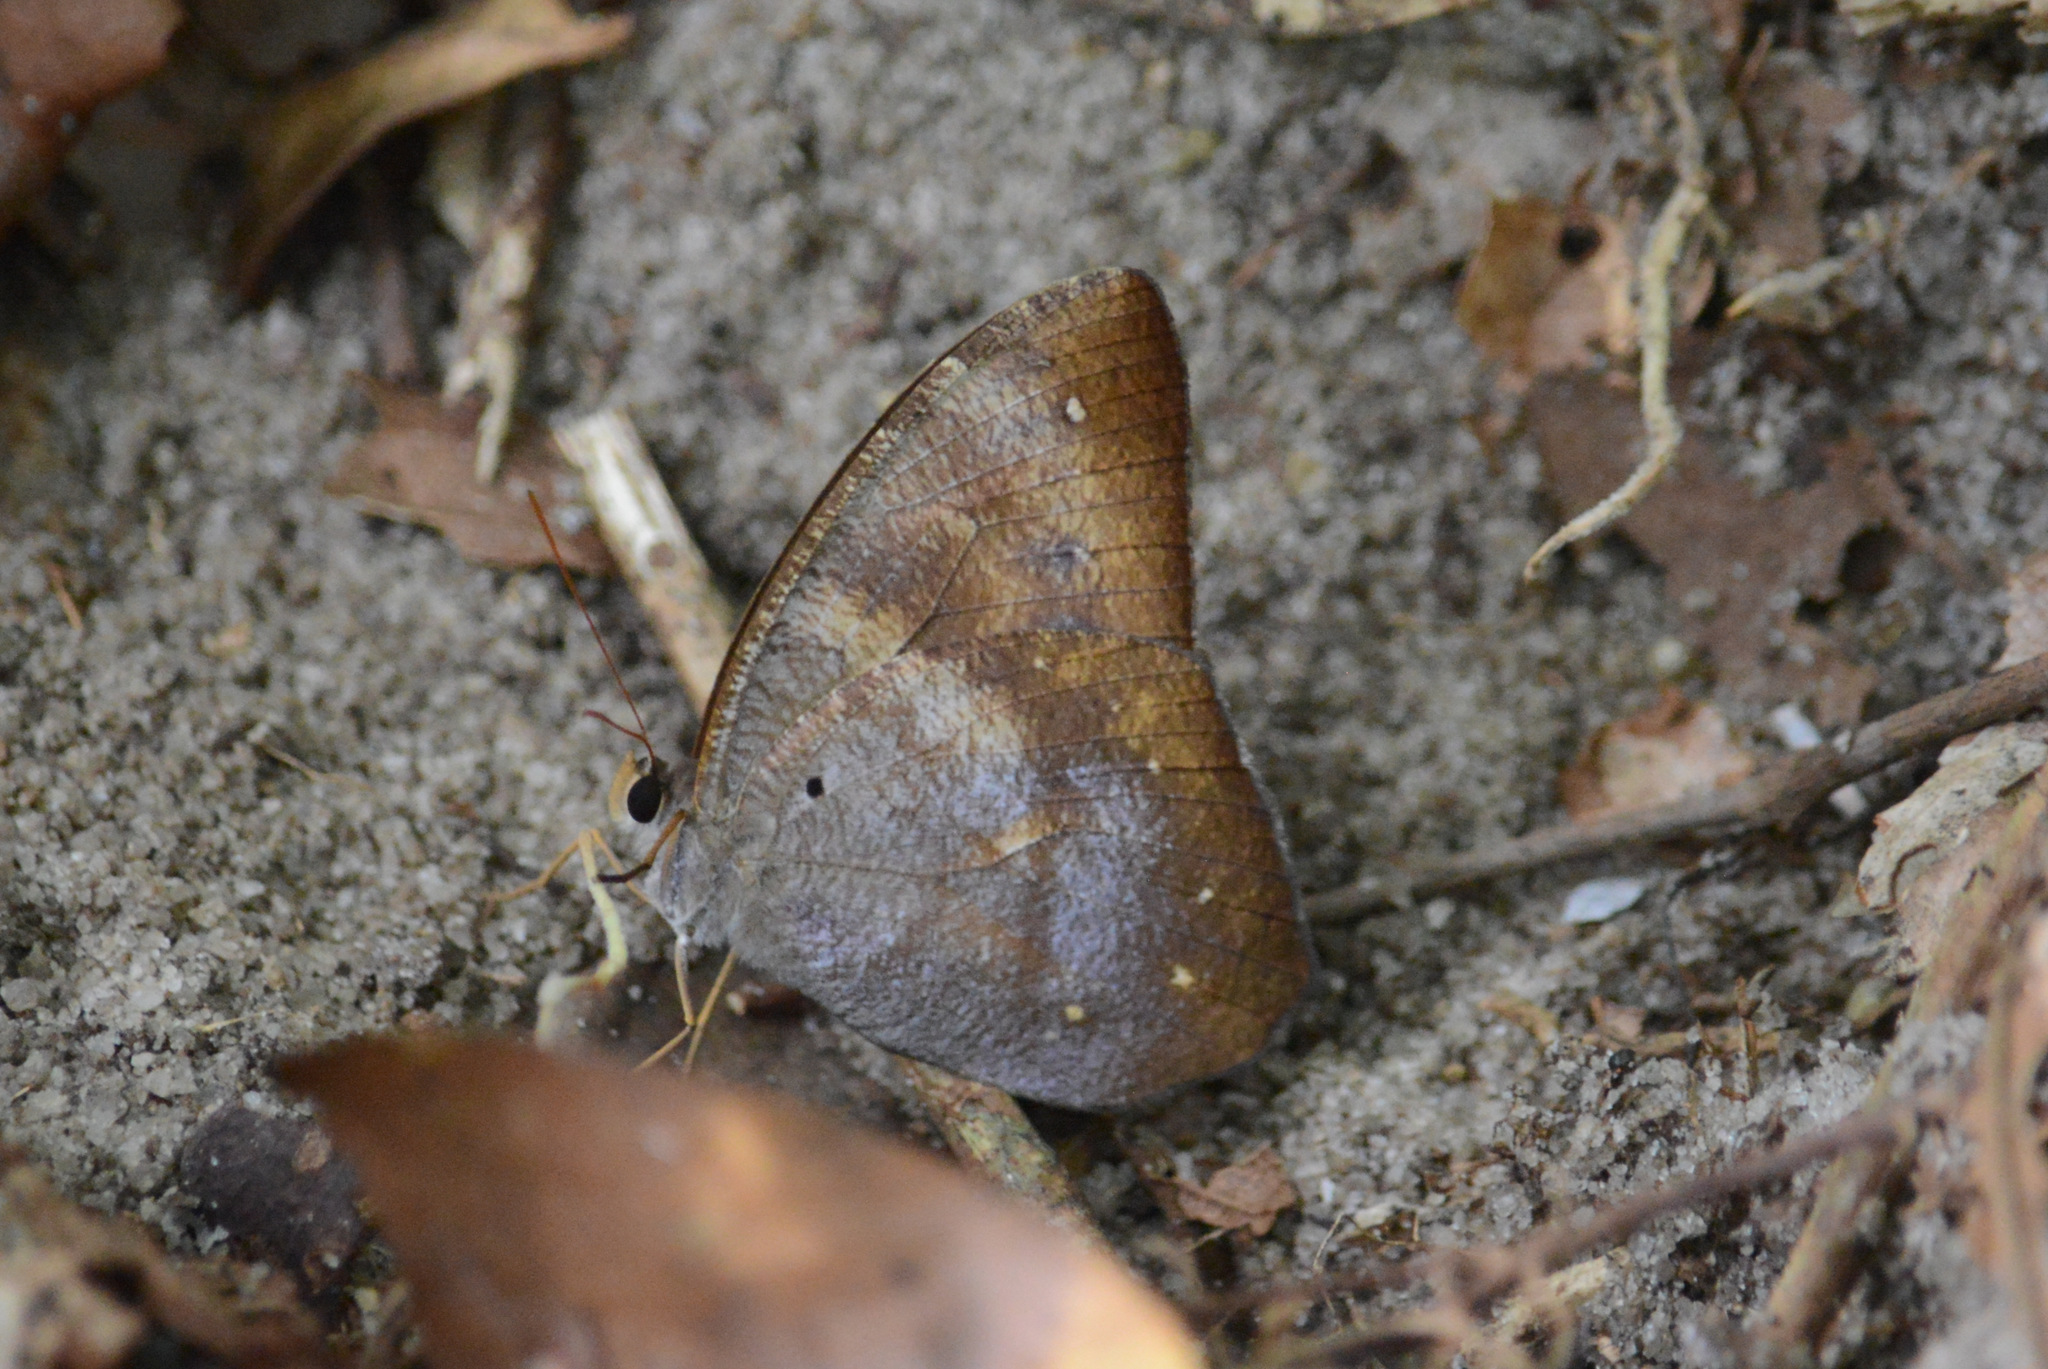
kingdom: Animalia
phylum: Arthropoda
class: Insecta
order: Lepidoptera
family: Nymphalidae
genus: Antirrhea
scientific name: Antirrhea archaea
